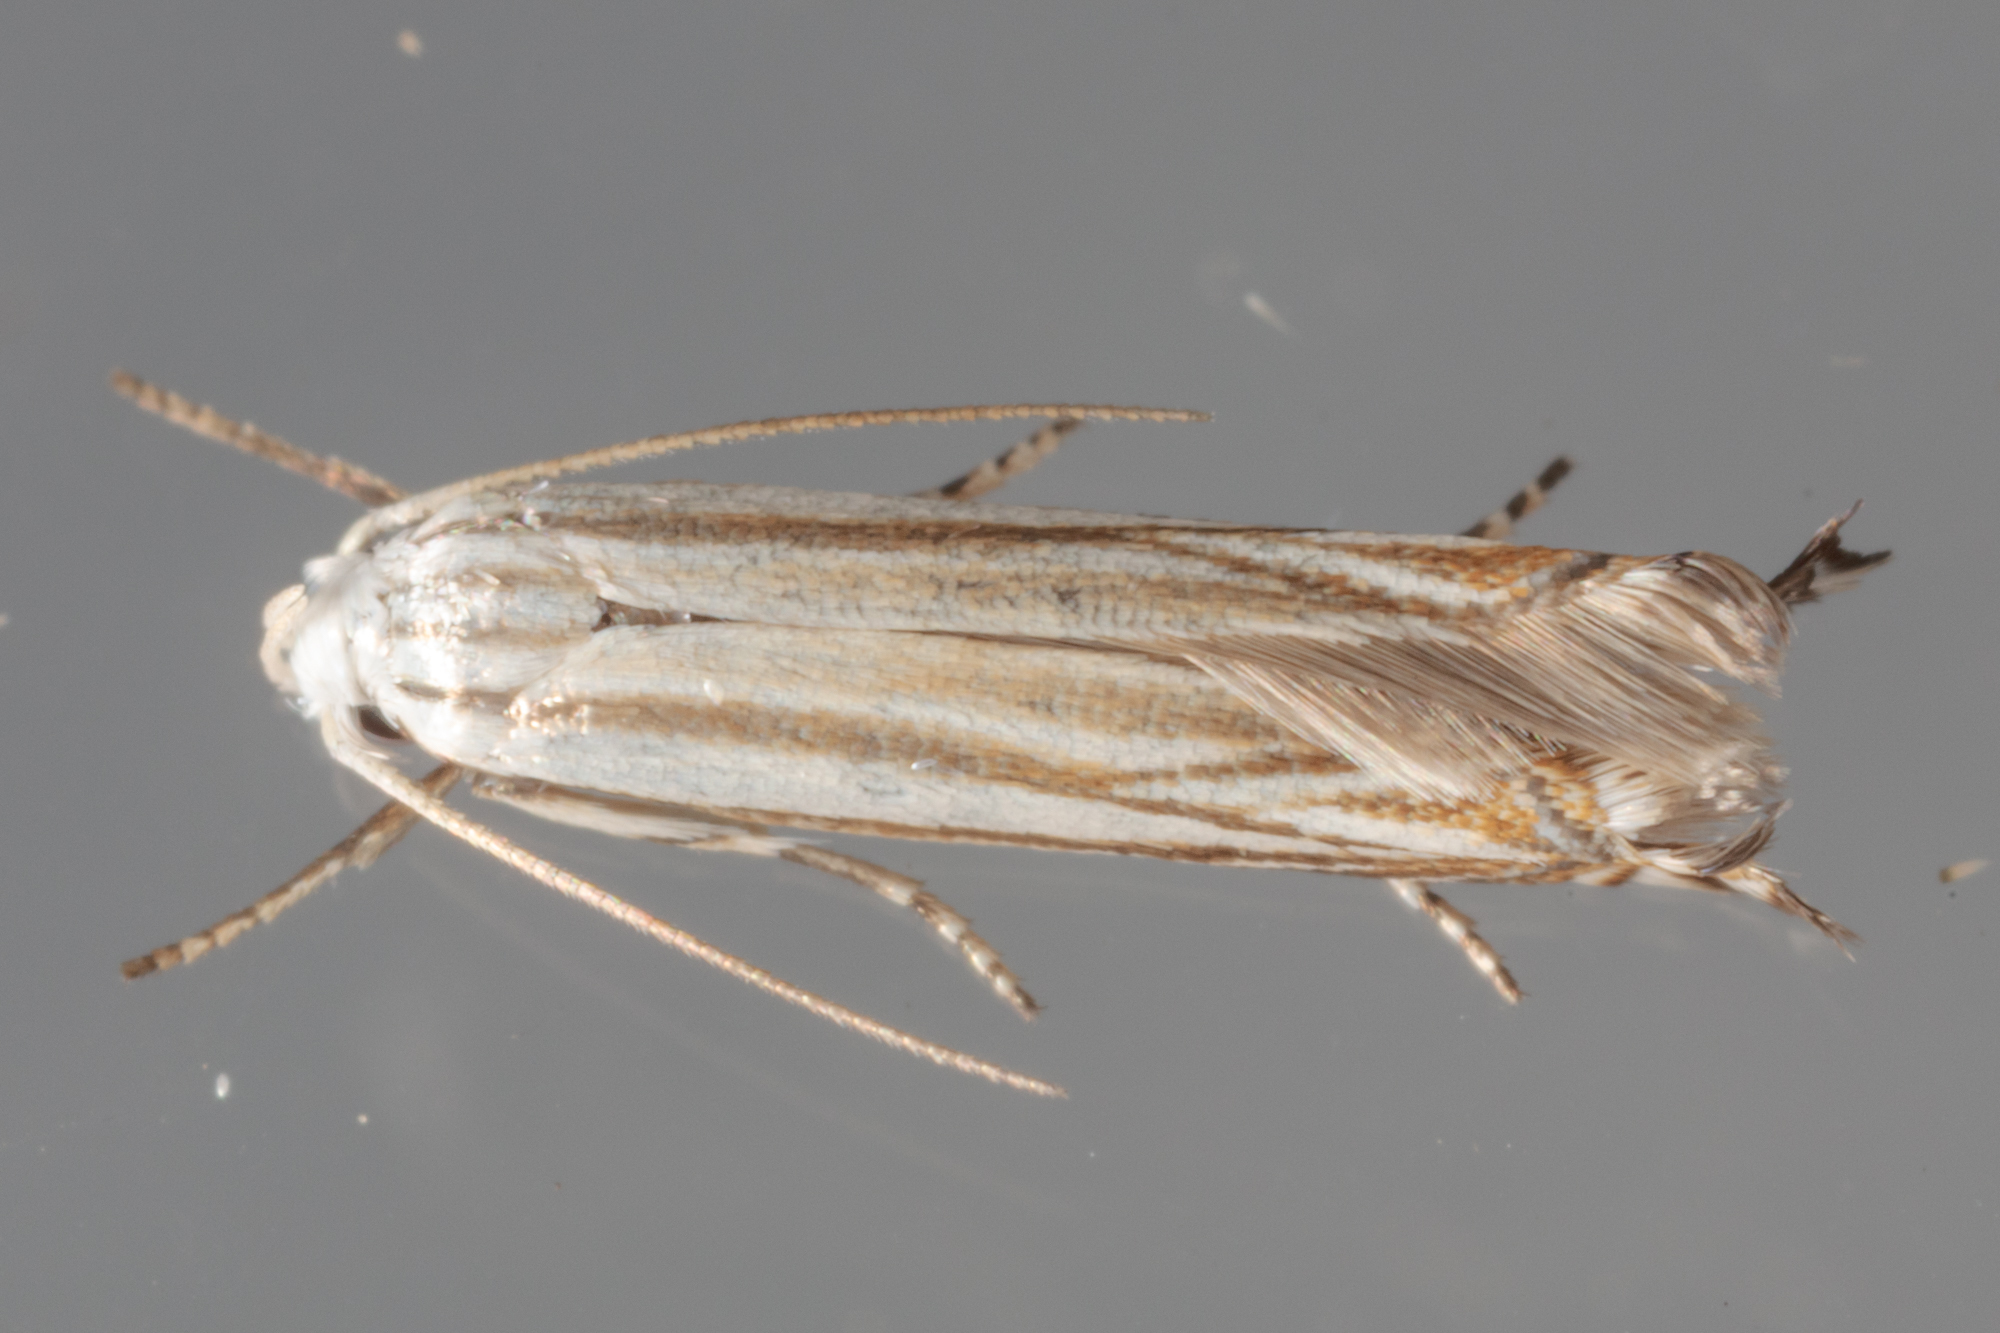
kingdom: Animalia
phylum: Arthropoda
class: Insecta
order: Lepidoptera
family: Gelechiidae
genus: Polyhymno
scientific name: Polyhymno luteostrigella
